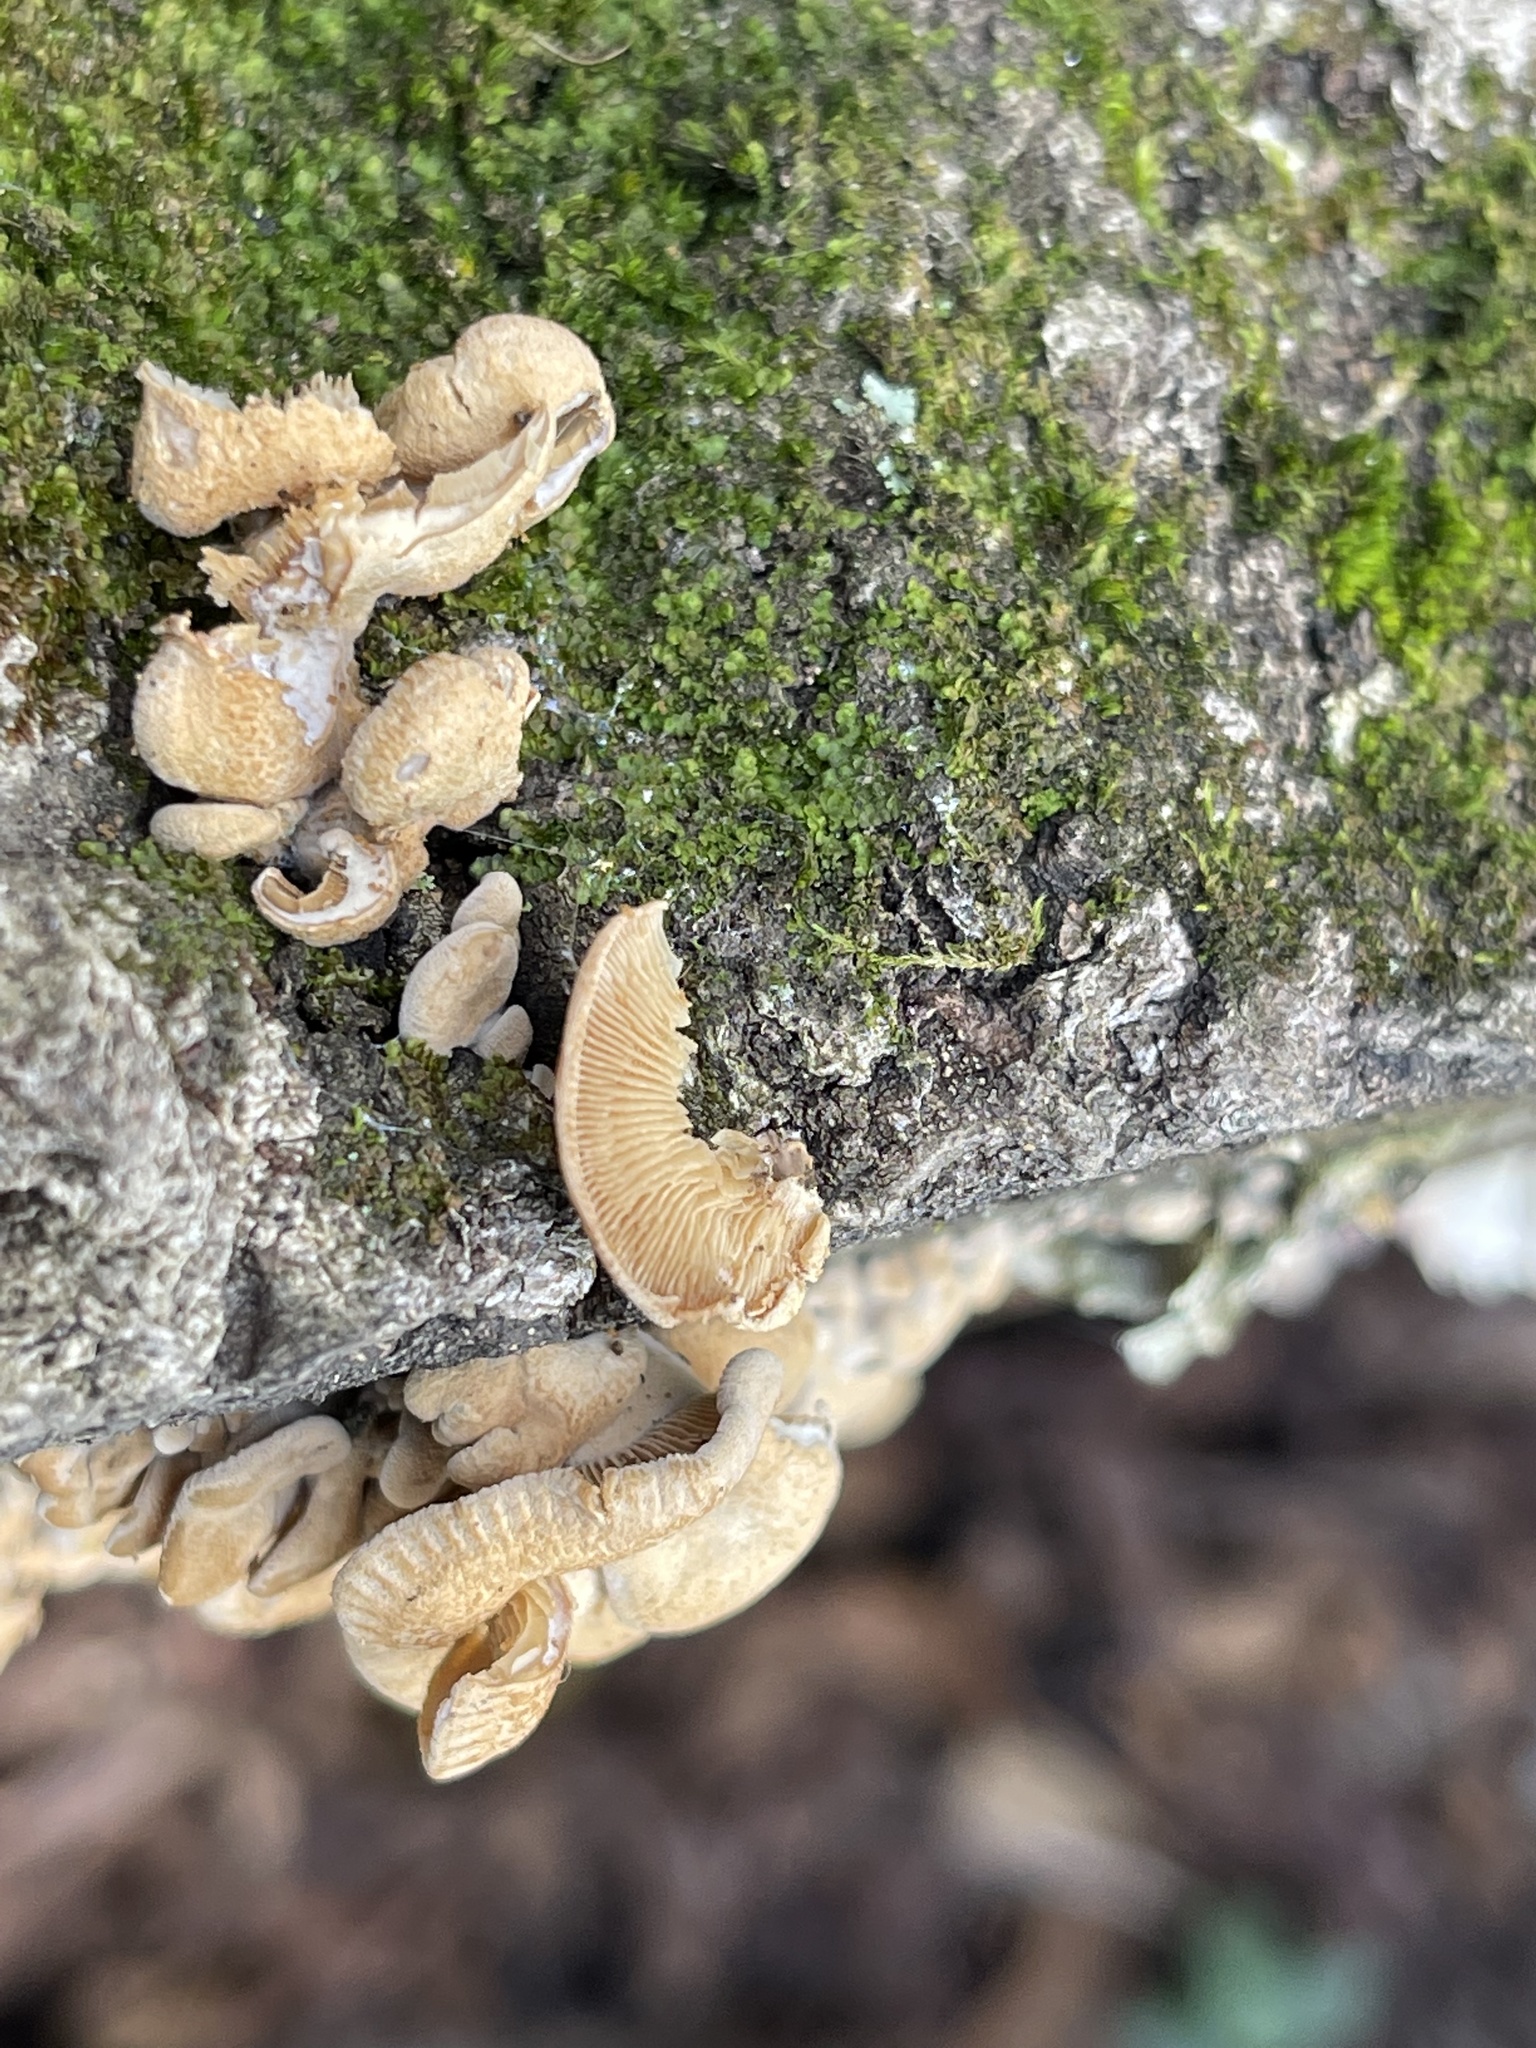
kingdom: Fungi
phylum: Basidiomycota
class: Agaricomycetes
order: Agaricales
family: Mycenaceae
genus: Panellus
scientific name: Panellus stipticus
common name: Bitter oysterling
